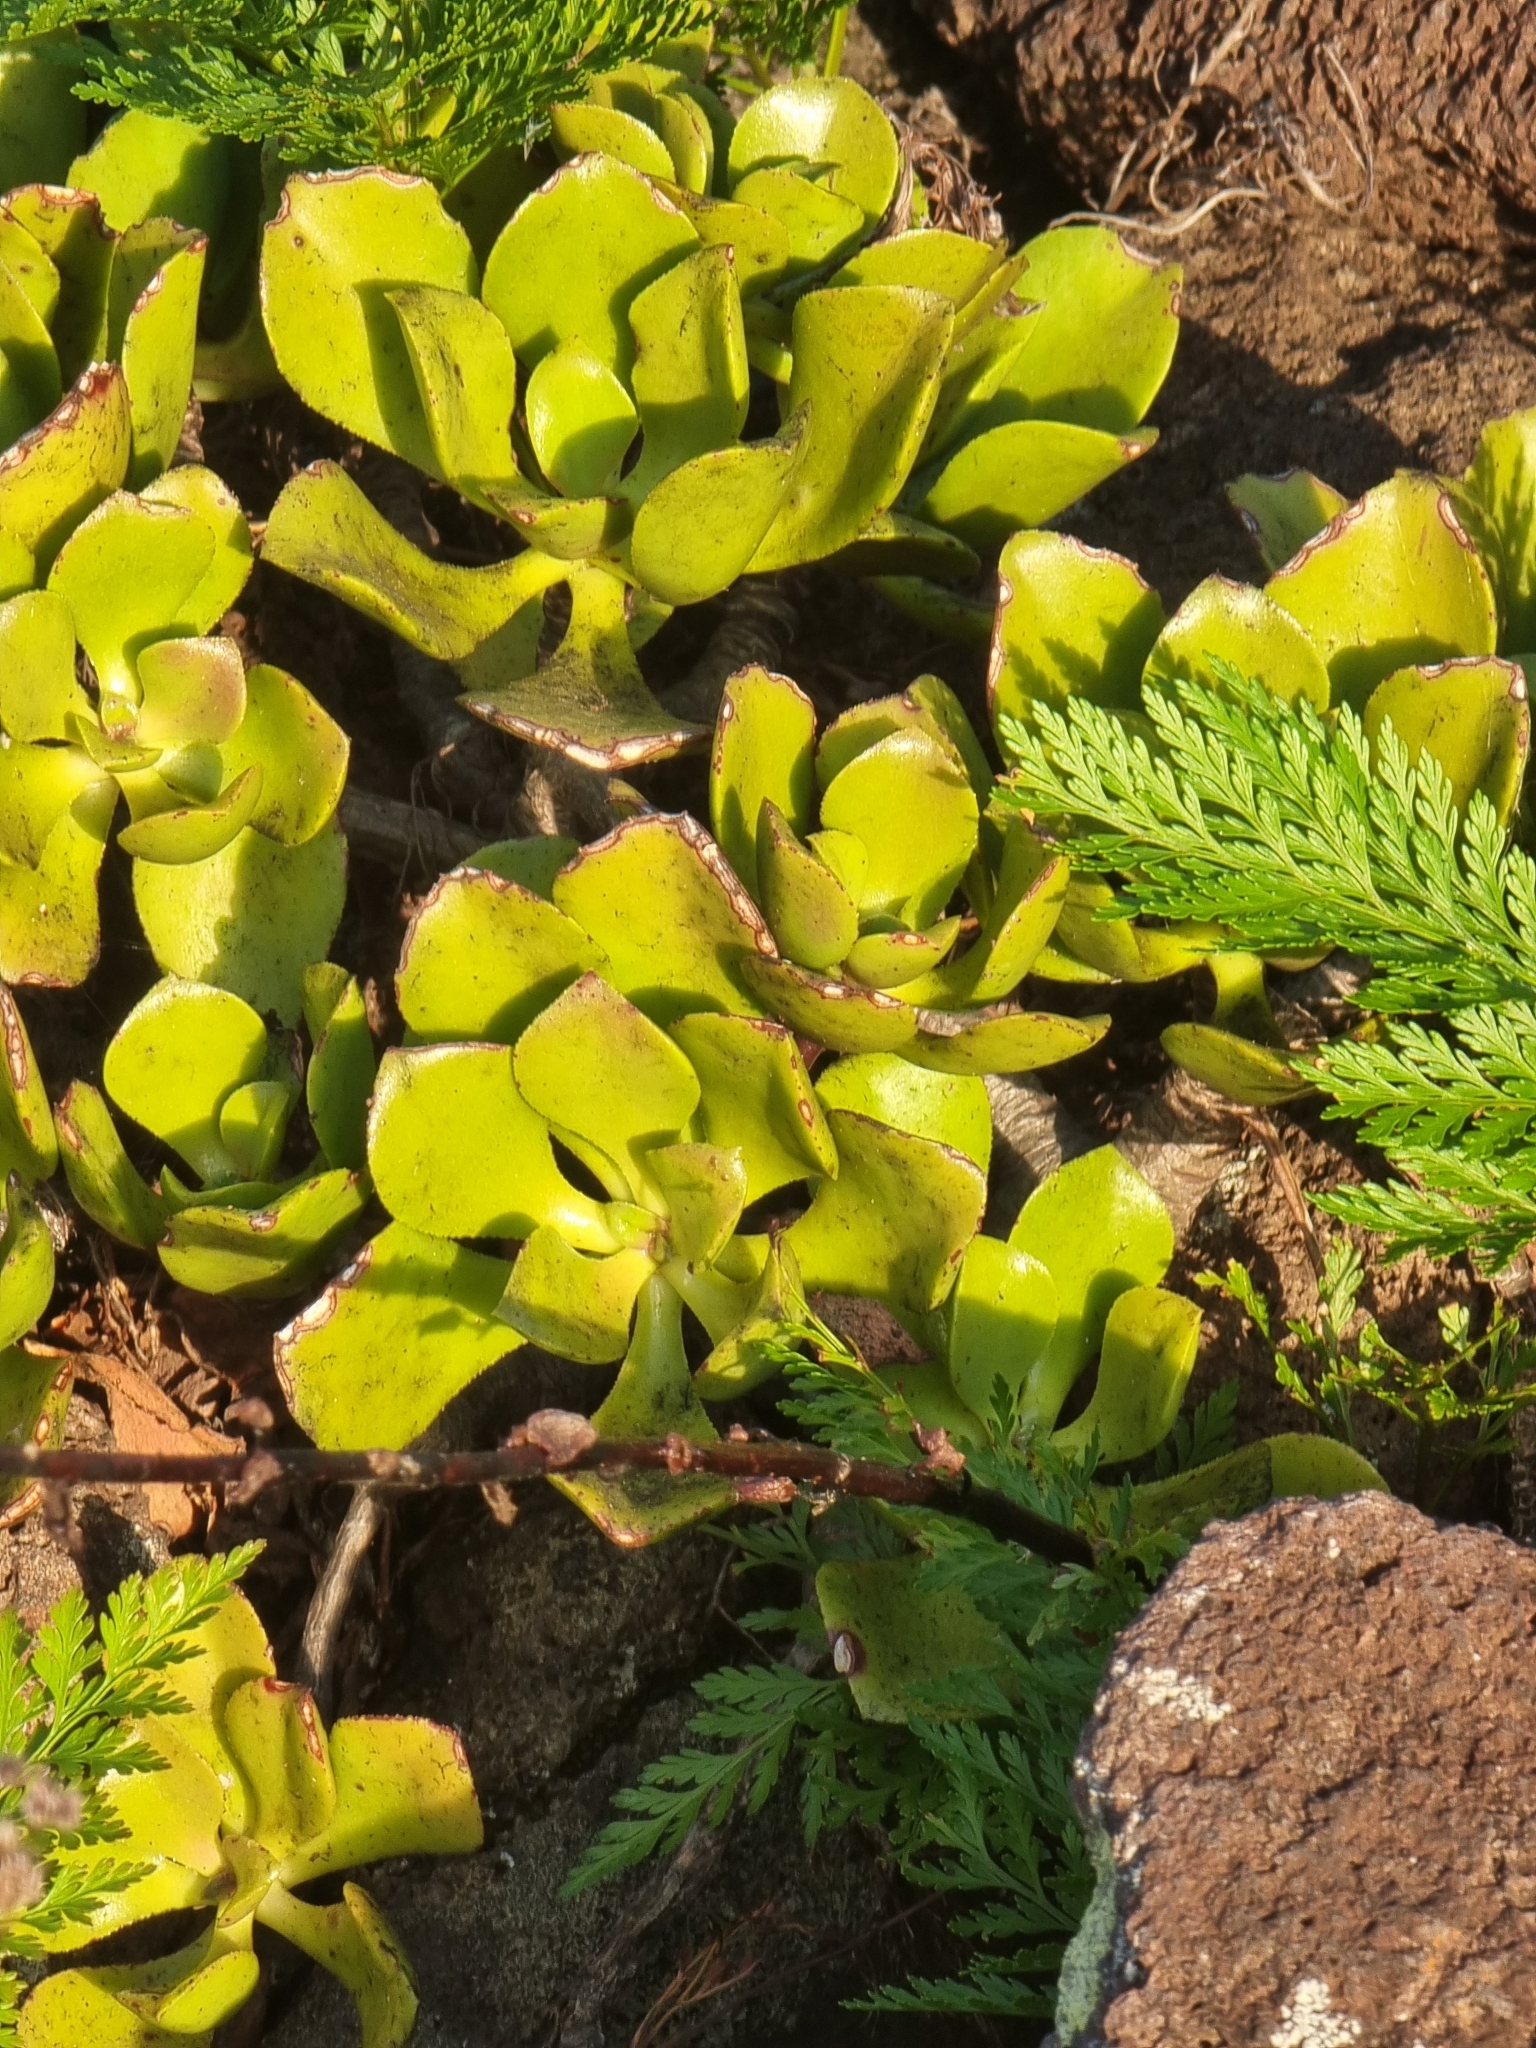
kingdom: Plantae
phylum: Tracheophyta
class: Magnoliopsida
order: Saxifragales
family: Crassulaceae
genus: Aeonium
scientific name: Aeonium glutinosum
